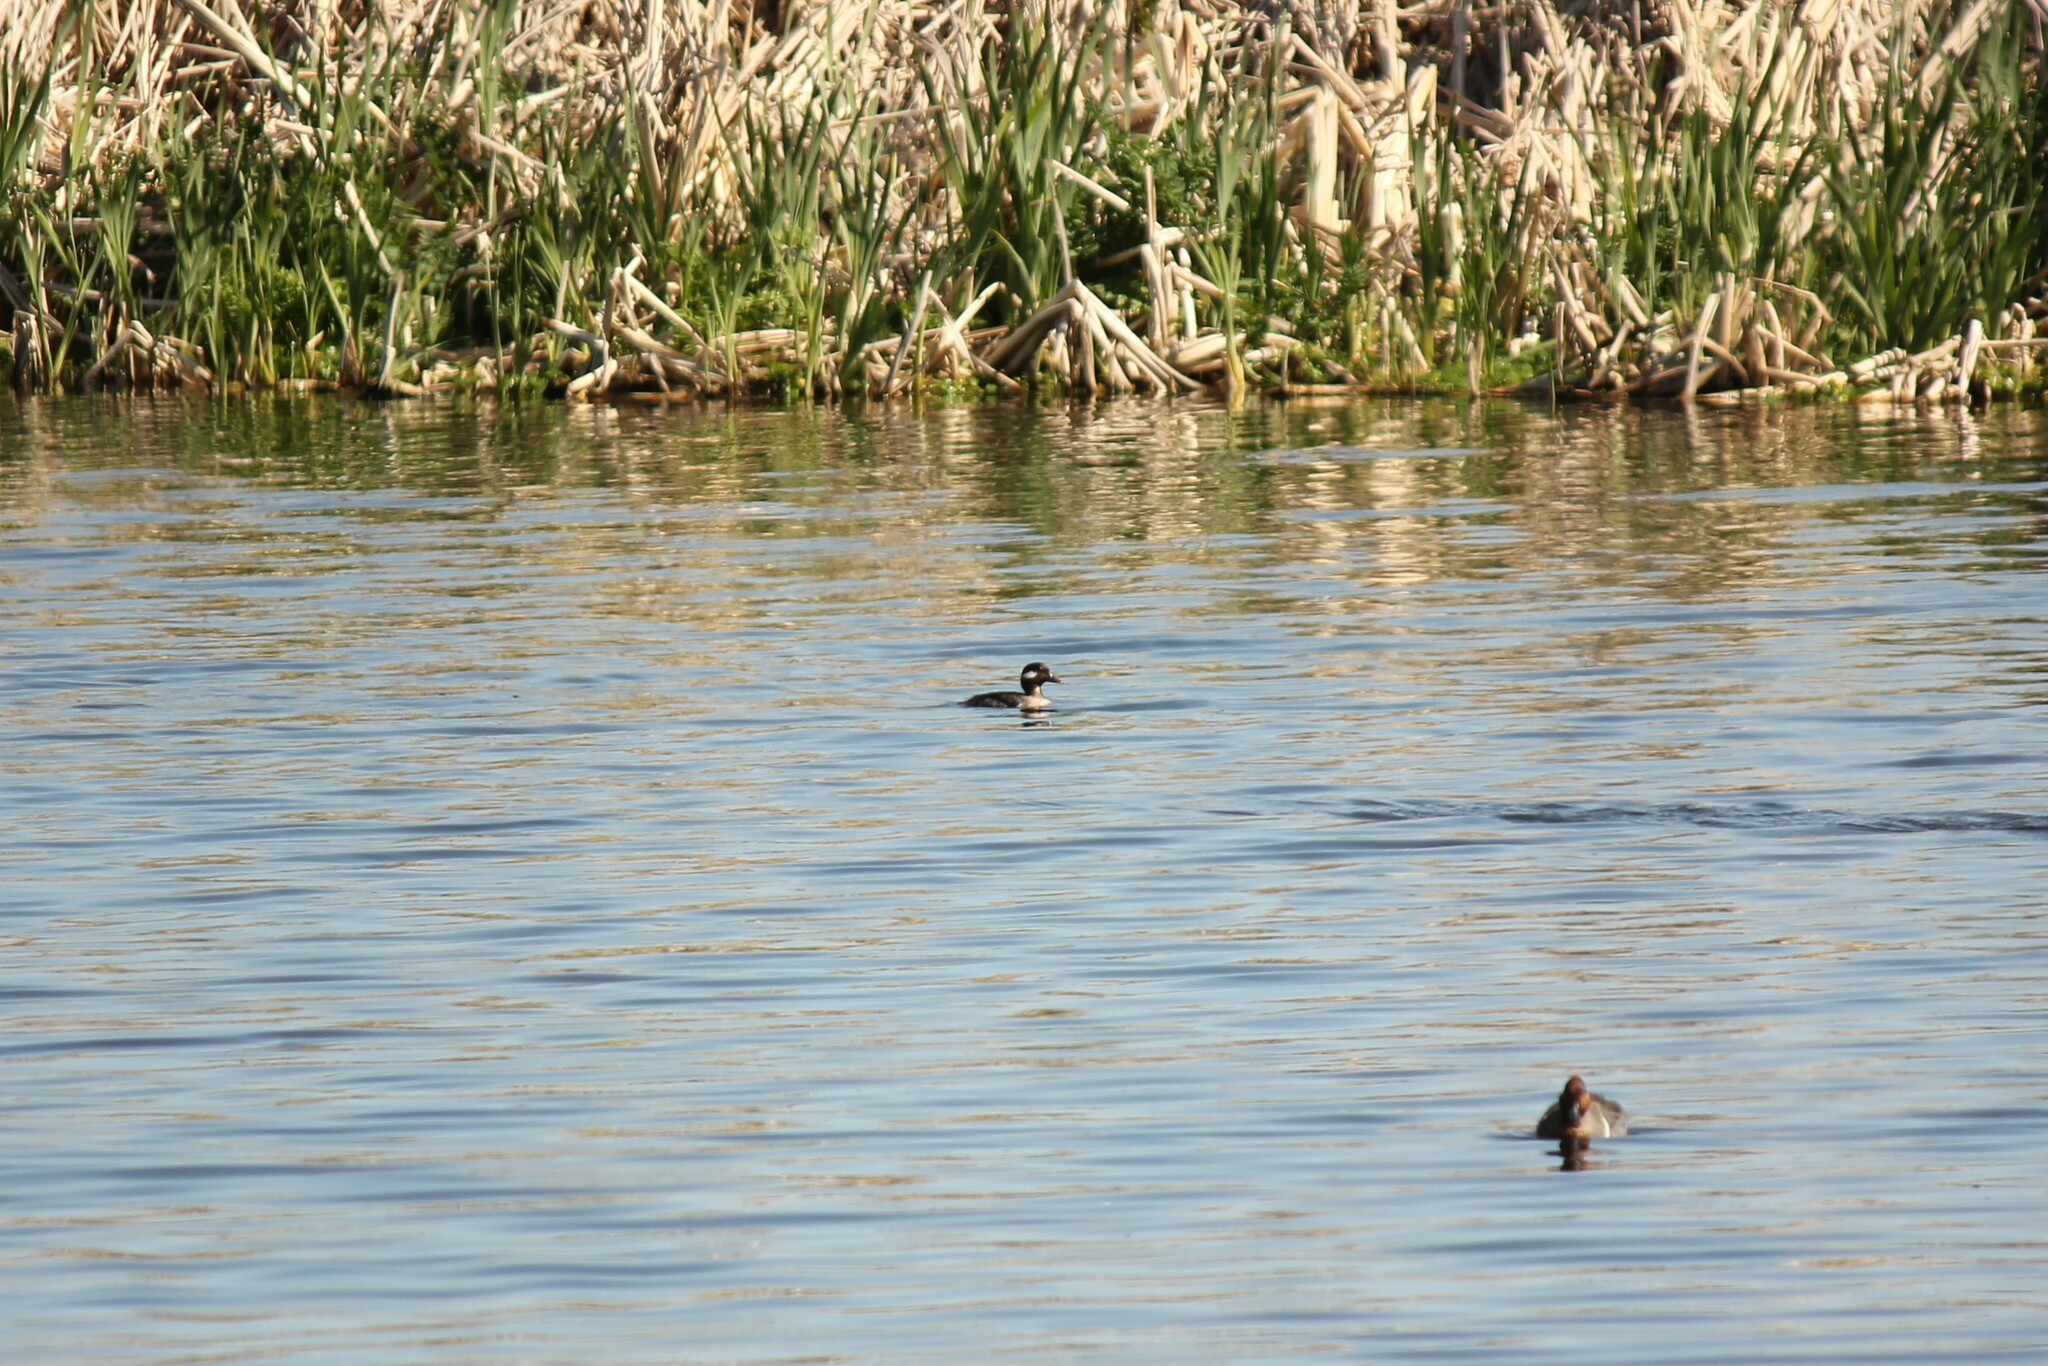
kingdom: Animalia
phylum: Chordata
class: Aves
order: Anseriformes
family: Anatidae
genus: Bucephala
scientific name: Bucephala albeola
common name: Bufflehead
